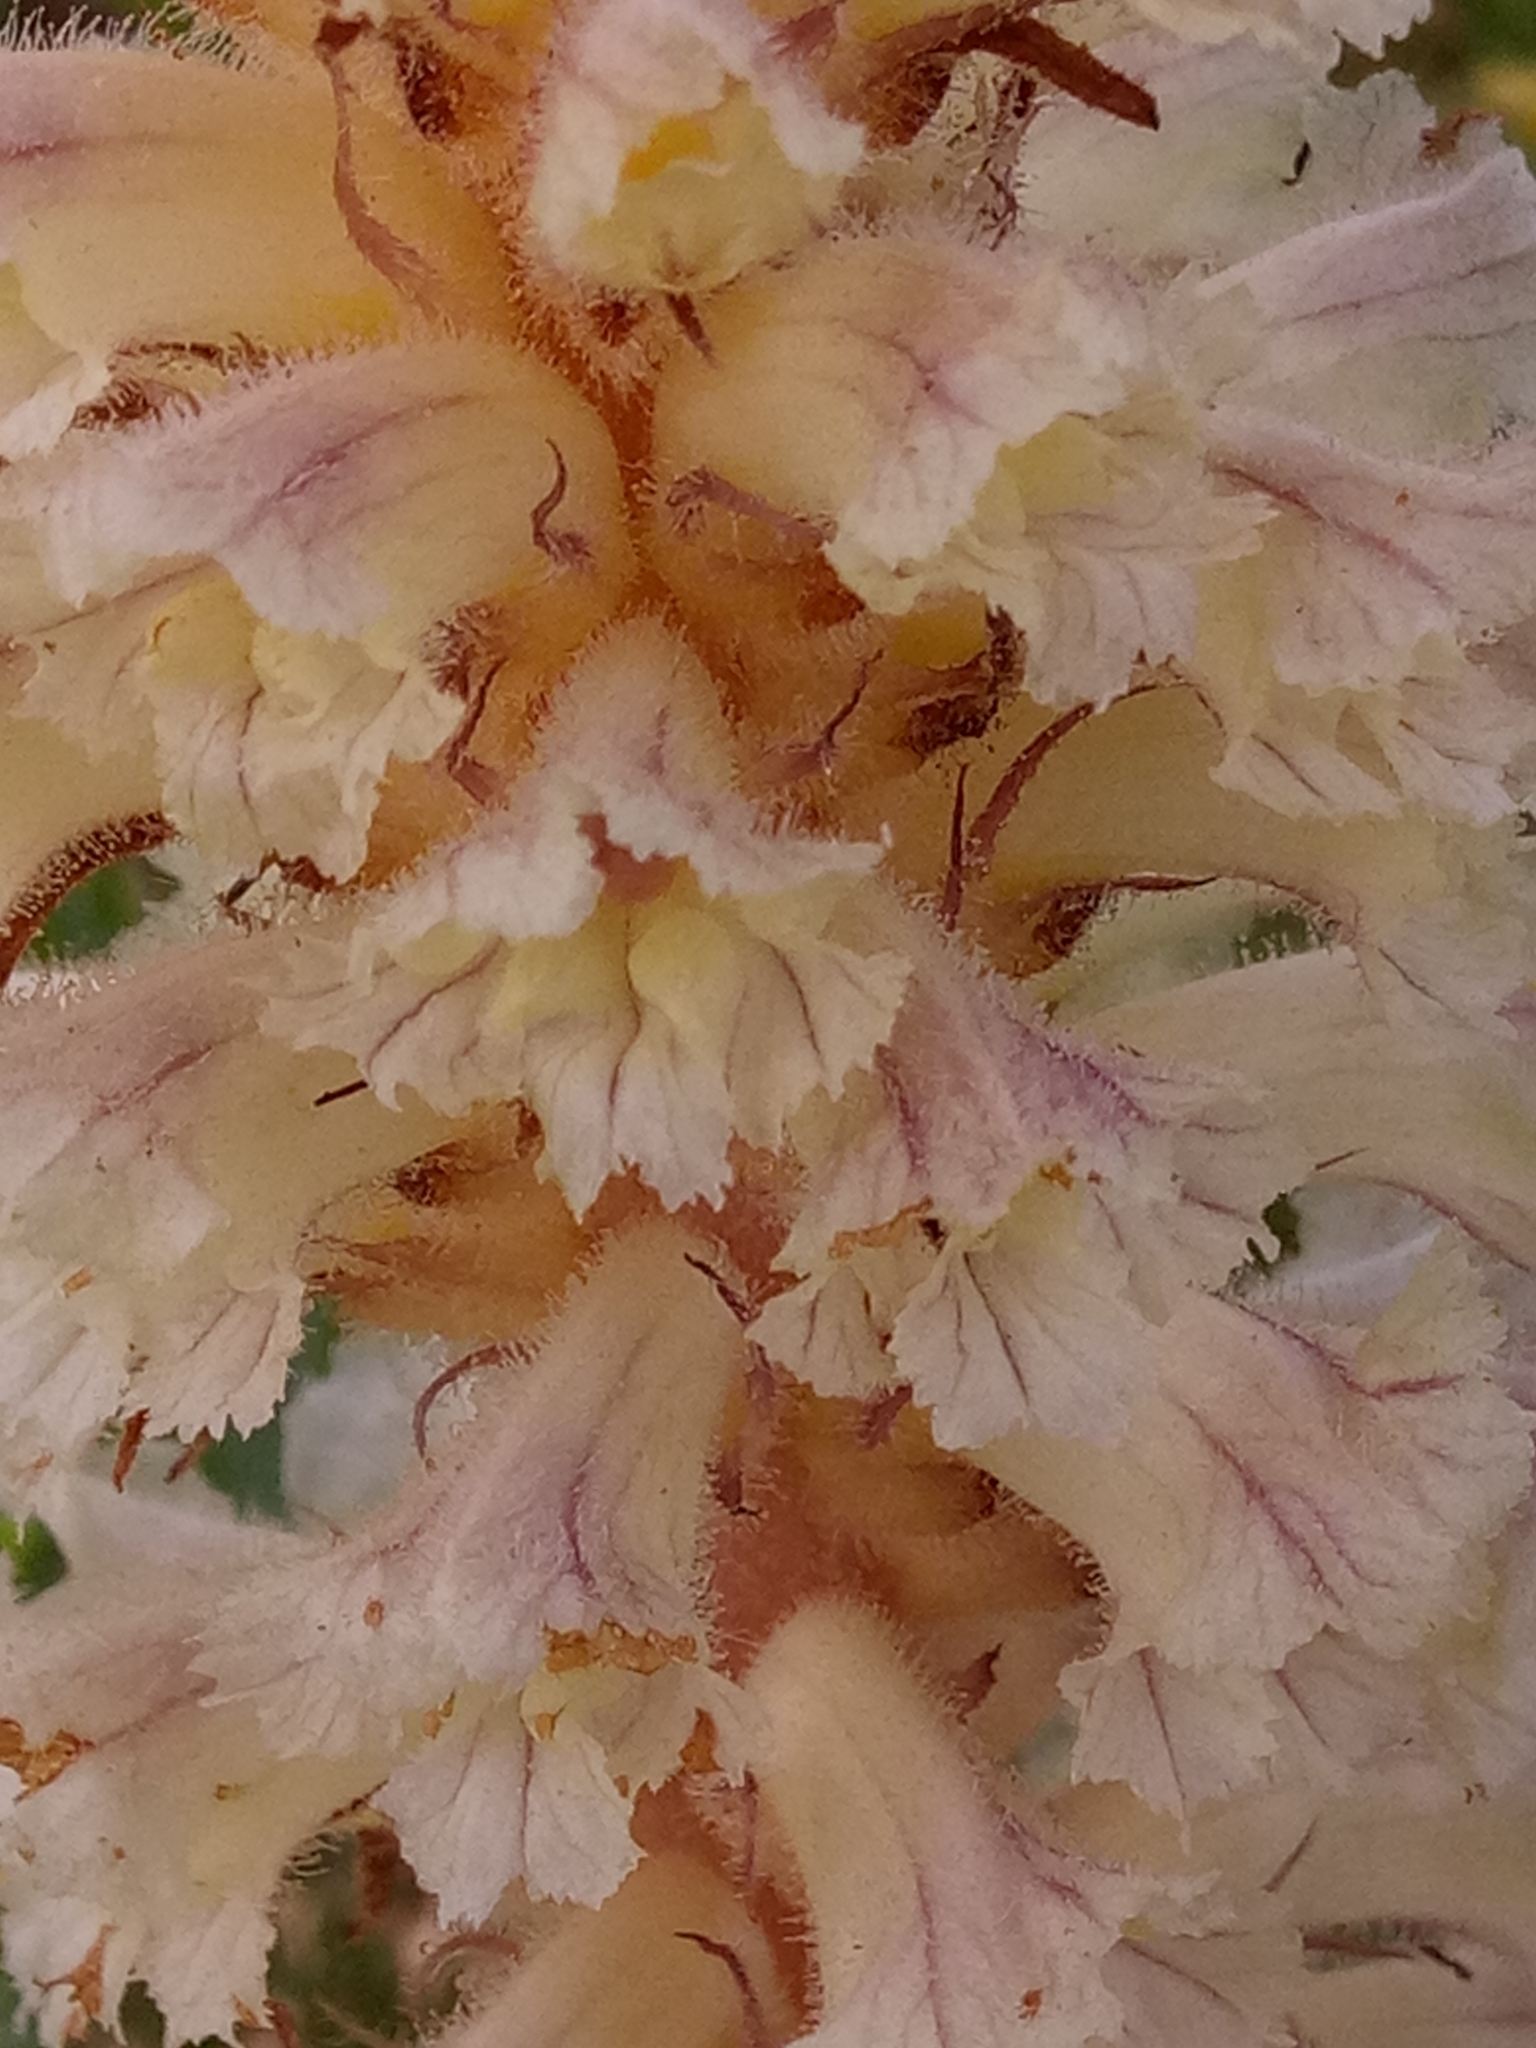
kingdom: Plantae
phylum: Tracheophyta
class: Magnoliopsida
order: Lamiales
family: Orobanchaceae
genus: Orobanche
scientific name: Orobanche amethystea
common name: Amethyst broomrape
